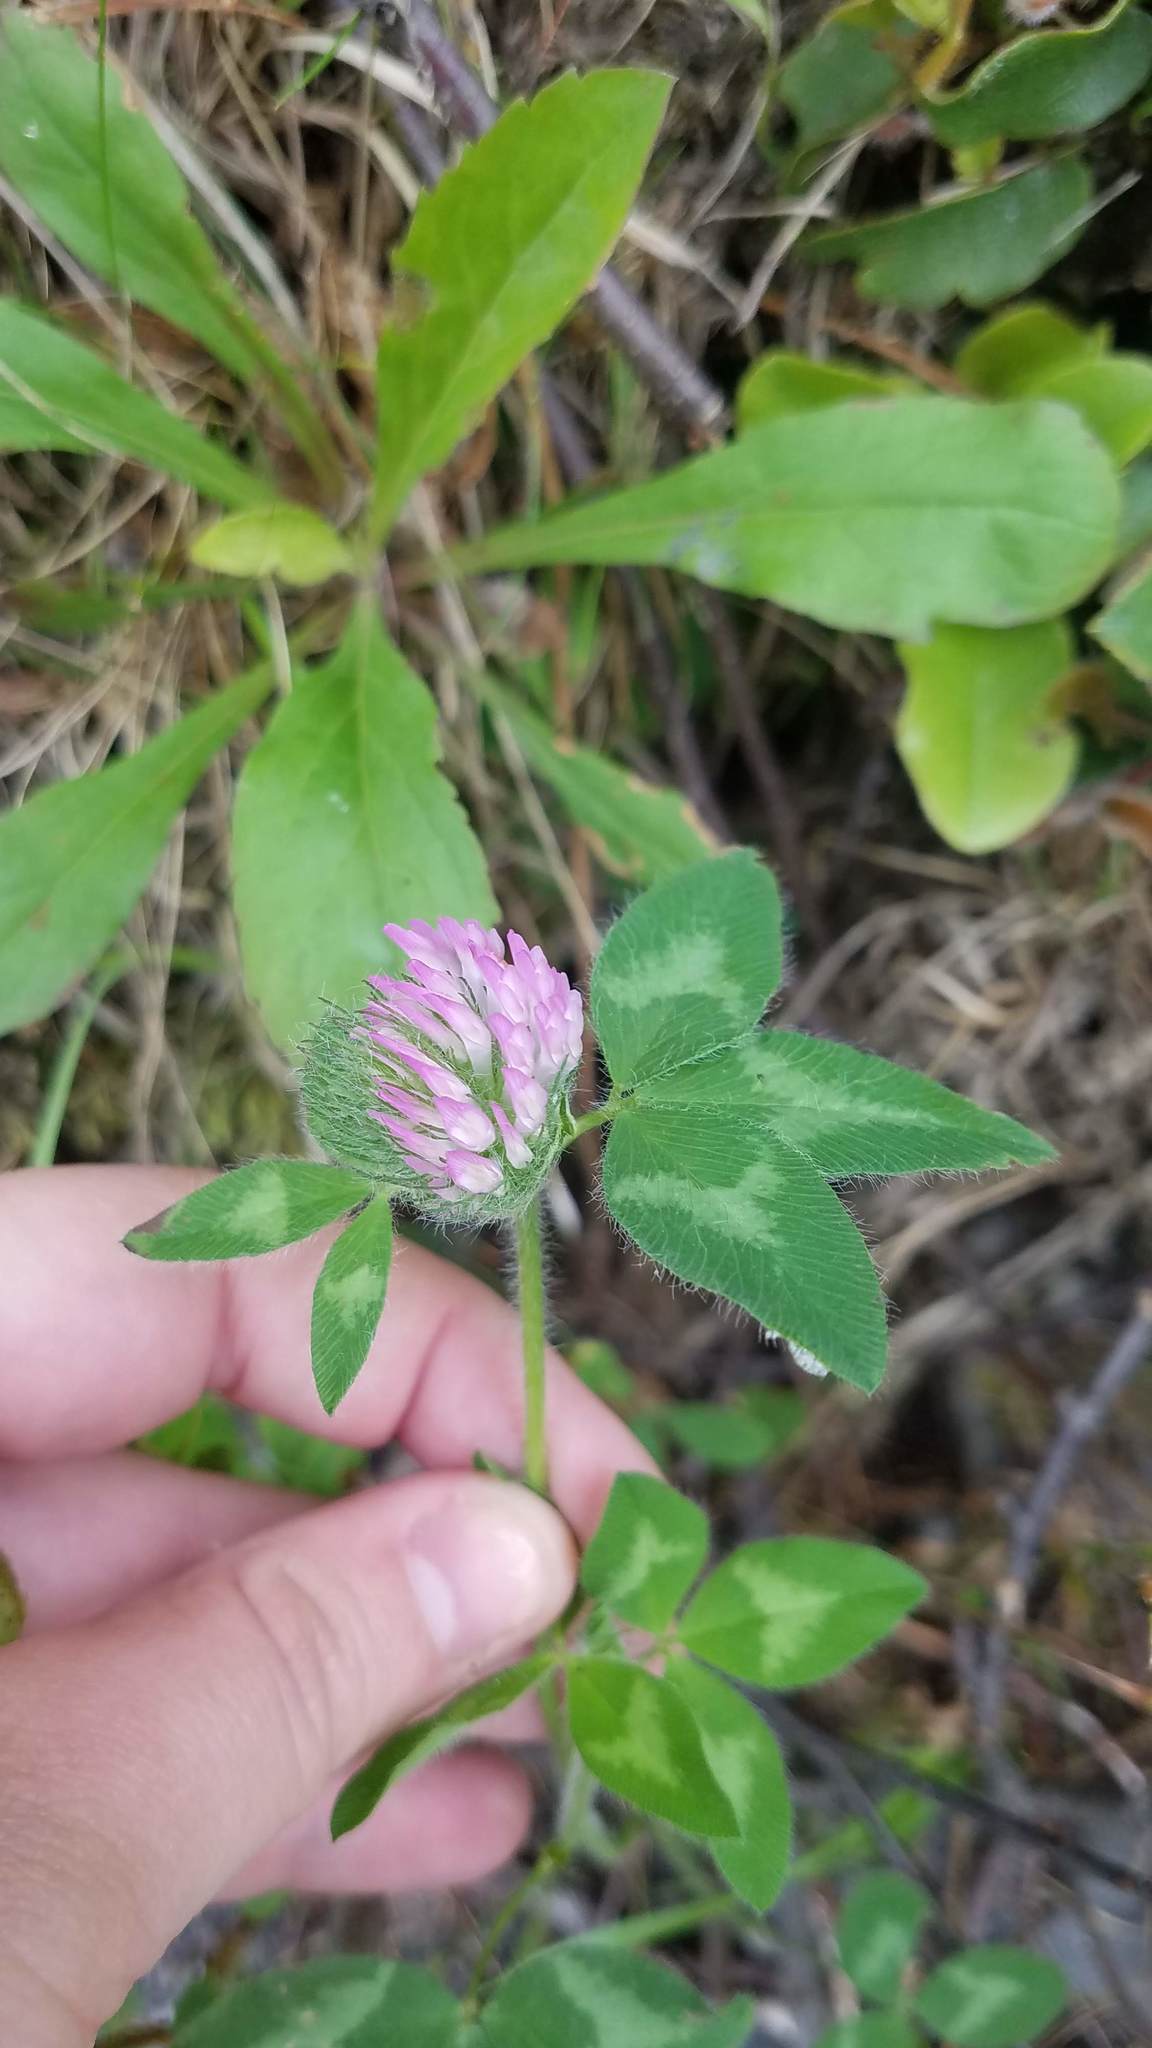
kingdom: Plantae
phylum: Tracheophyta
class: Magnoliopsida
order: Fabales
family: Fabaceae
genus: Trifolium
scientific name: Trifolium pratense
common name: Red clover
